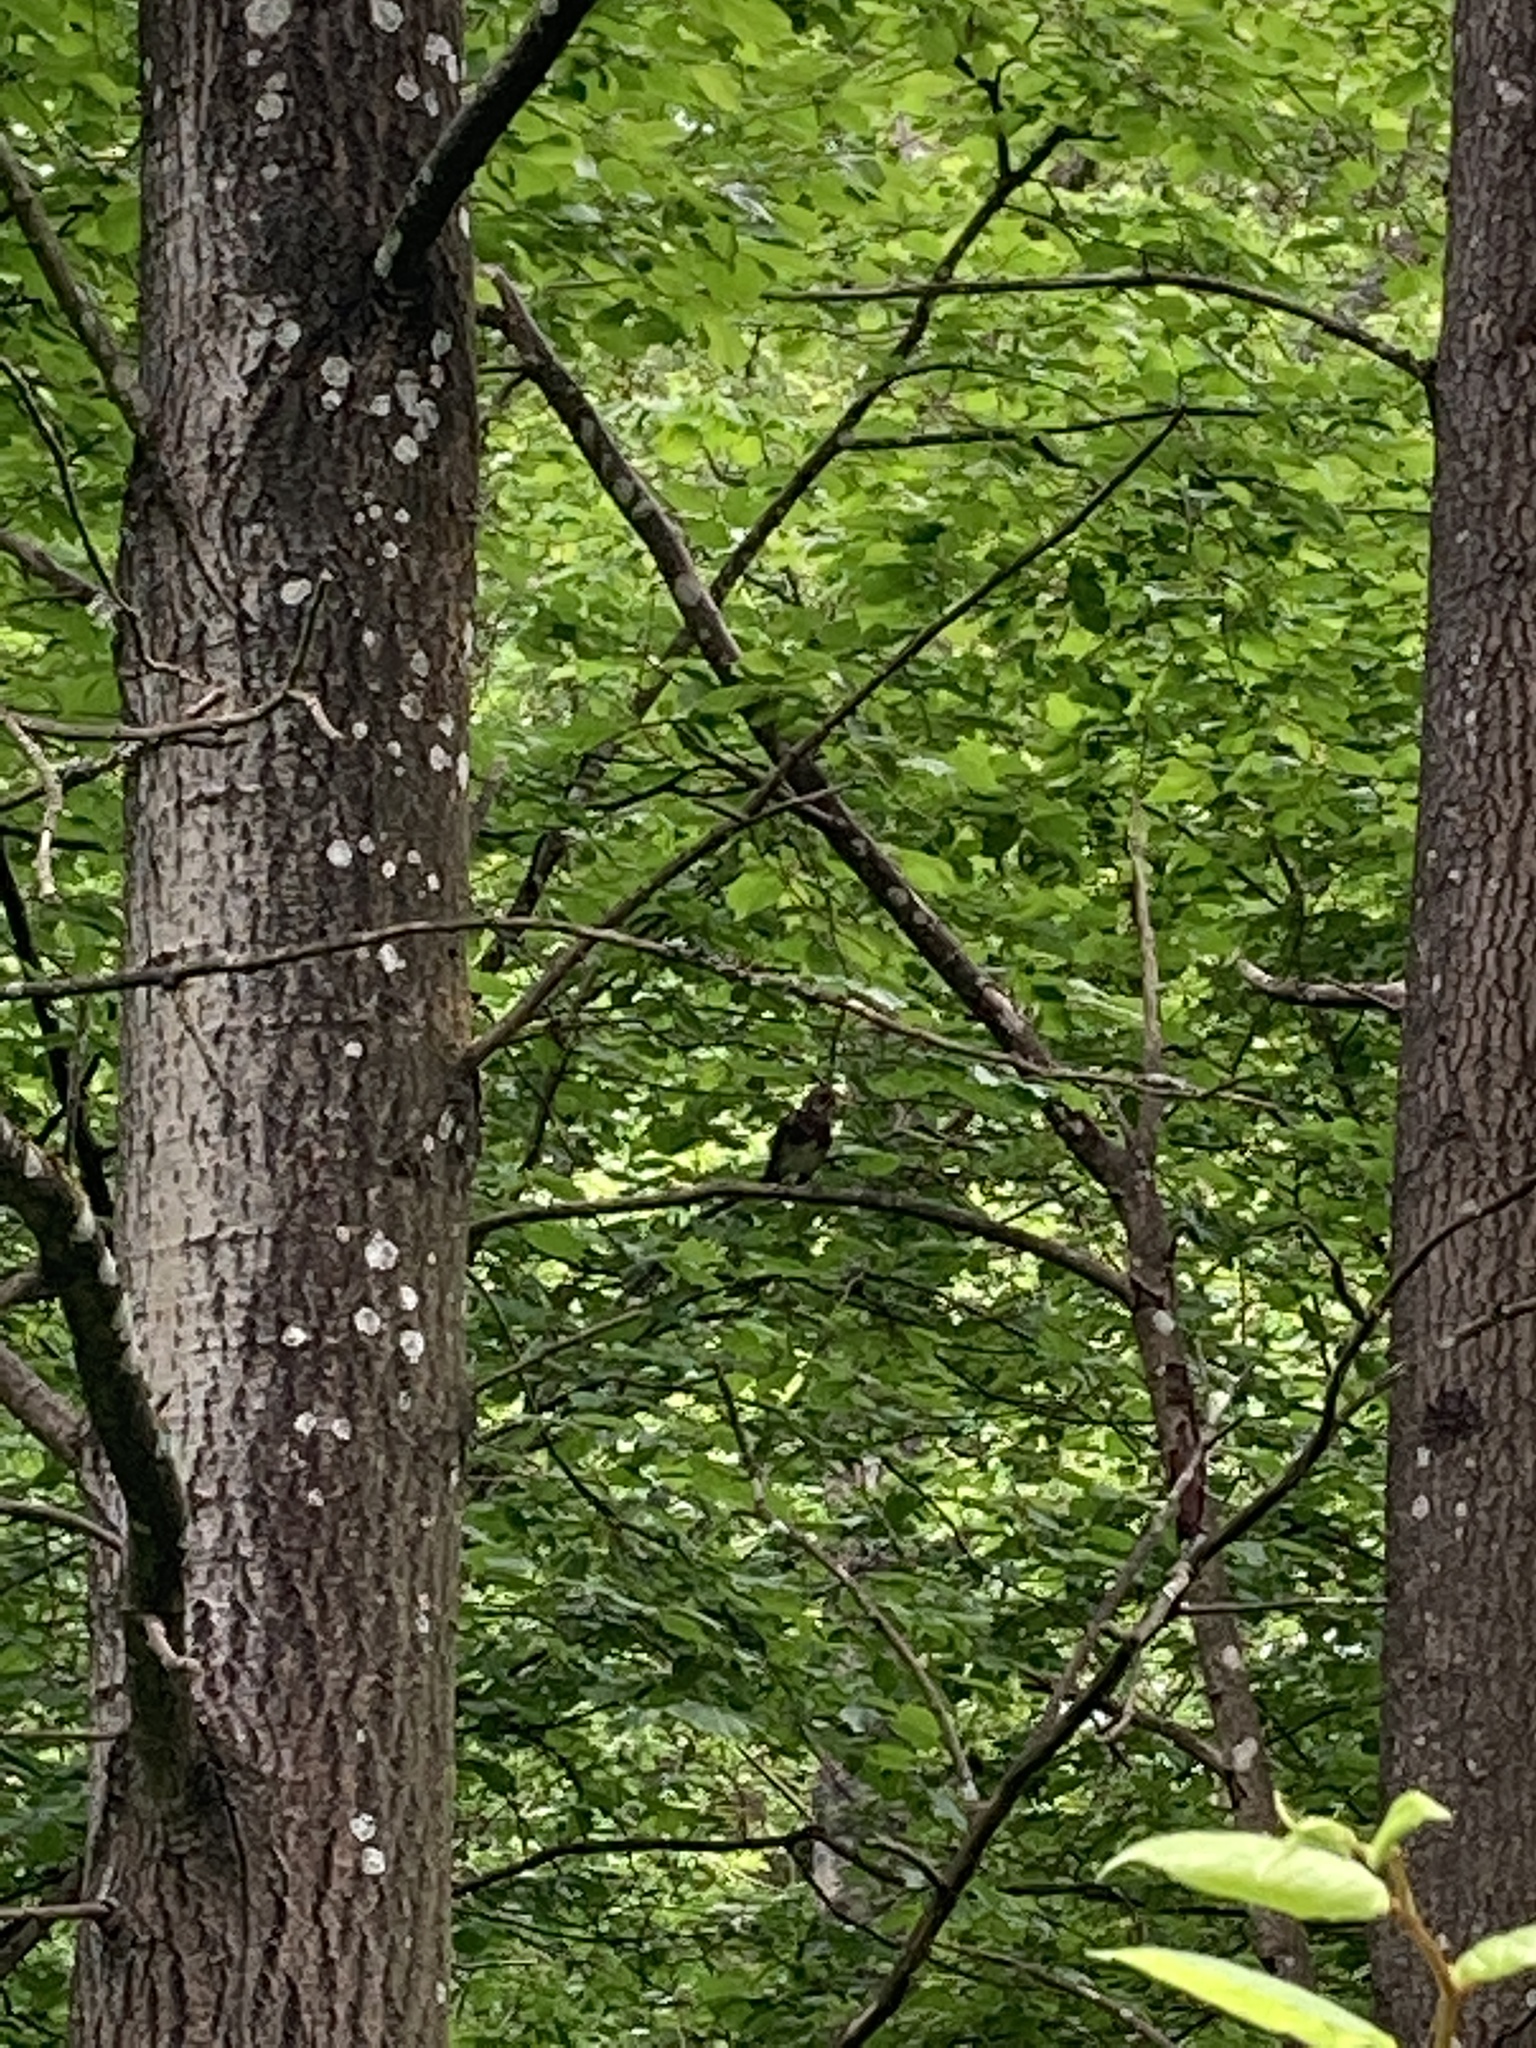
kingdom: Animalia
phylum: Chordata
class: Aves
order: Passeriformes
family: Turdidae
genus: Turdus
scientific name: Turdus pilaris
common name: Fieldfare
